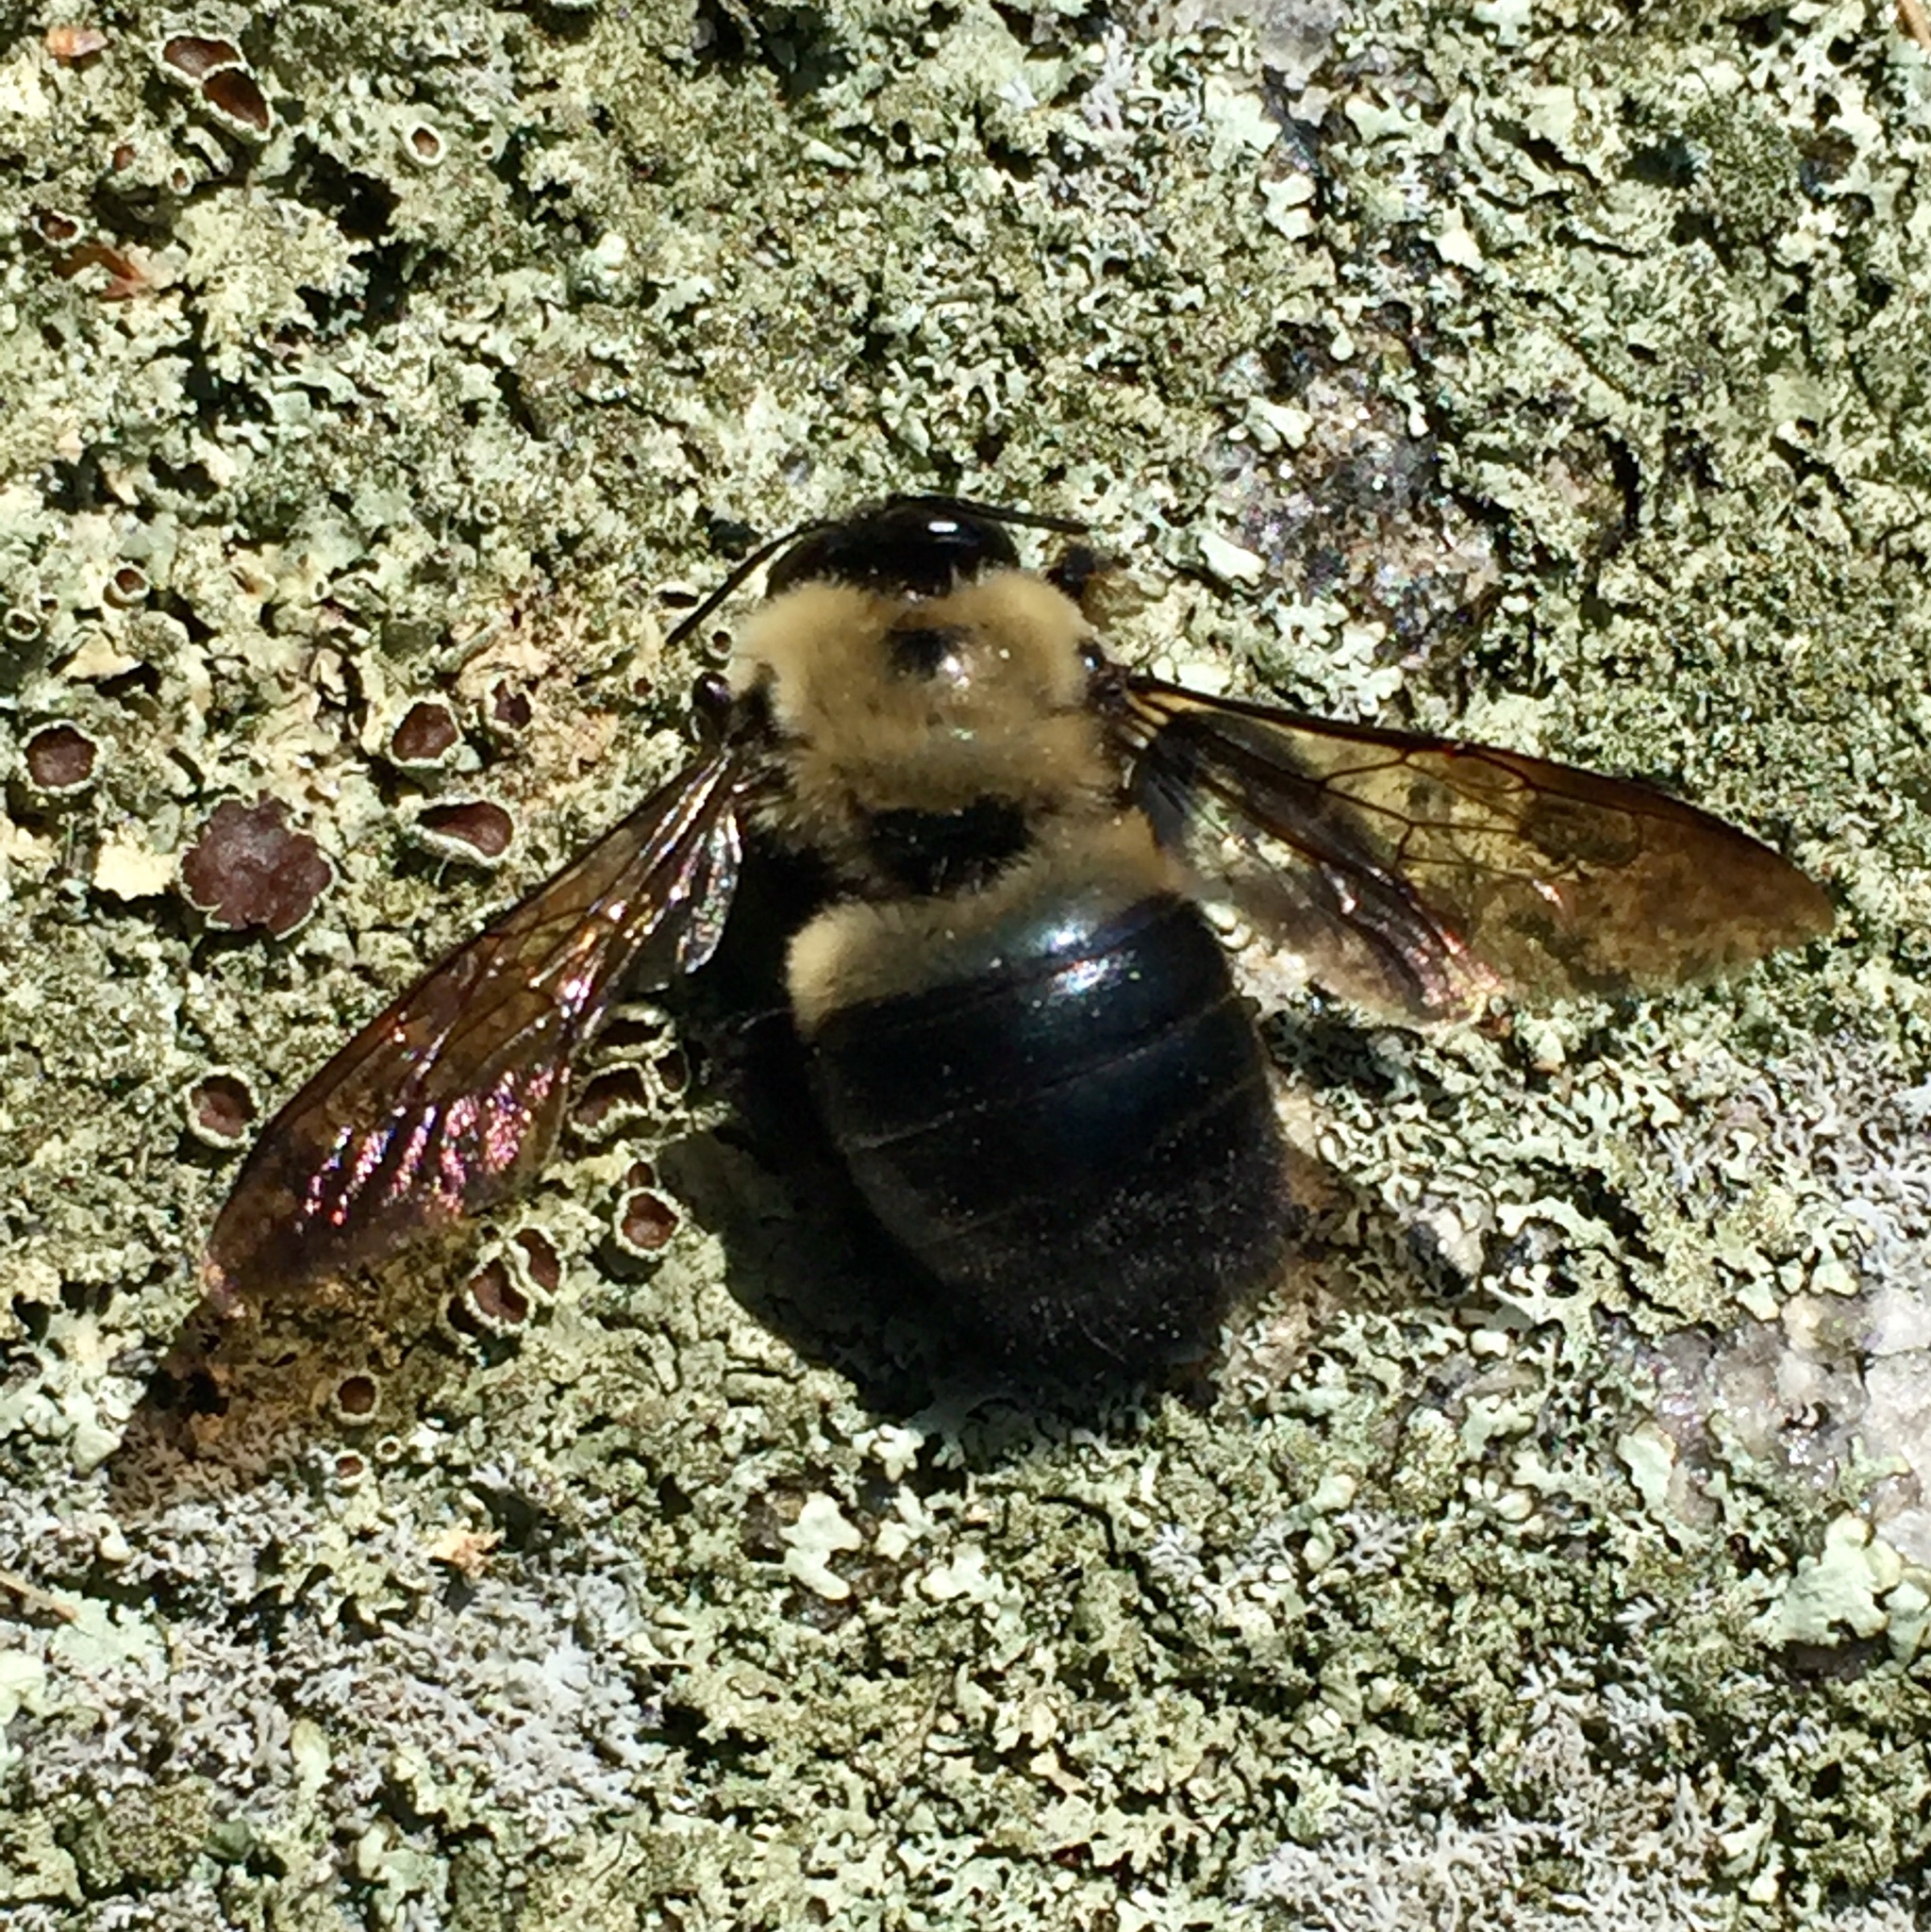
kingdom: Animalia
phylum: Arthropoda
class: Insecta
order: Hymenoptera
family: Apidae
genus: Xylocopa
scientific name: Xylocopa virginica
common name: Carpenter bee
